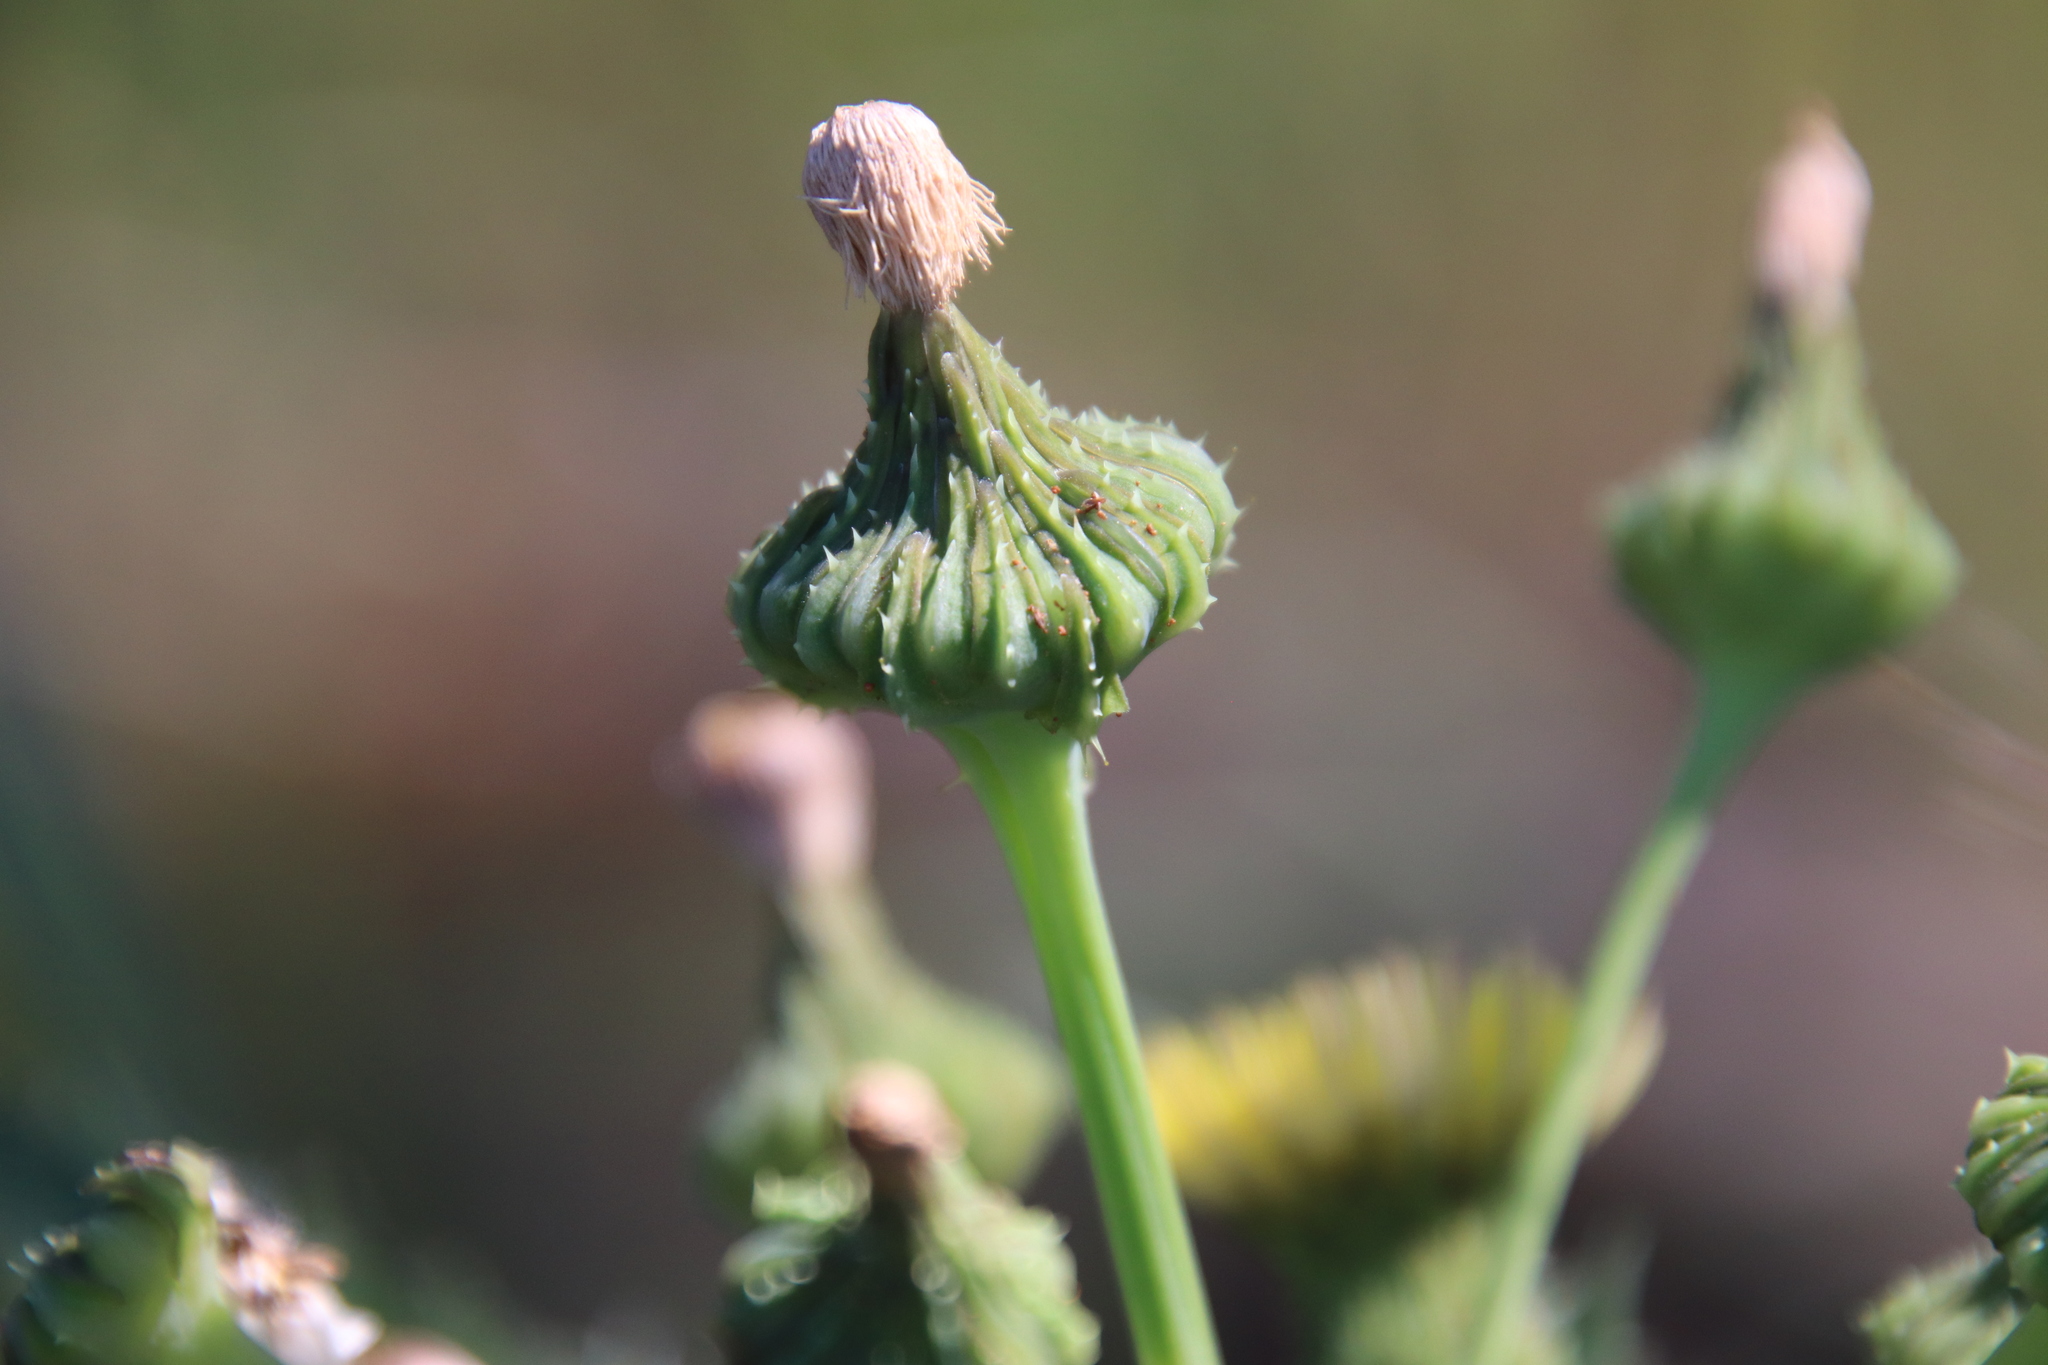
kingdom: Plantae
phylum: Tracheophyta
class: Magnoliopsida
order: Asterales
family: Asteraceae
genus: Sonchus
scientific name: Sonchus asper
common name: Prickly sow-thistle
